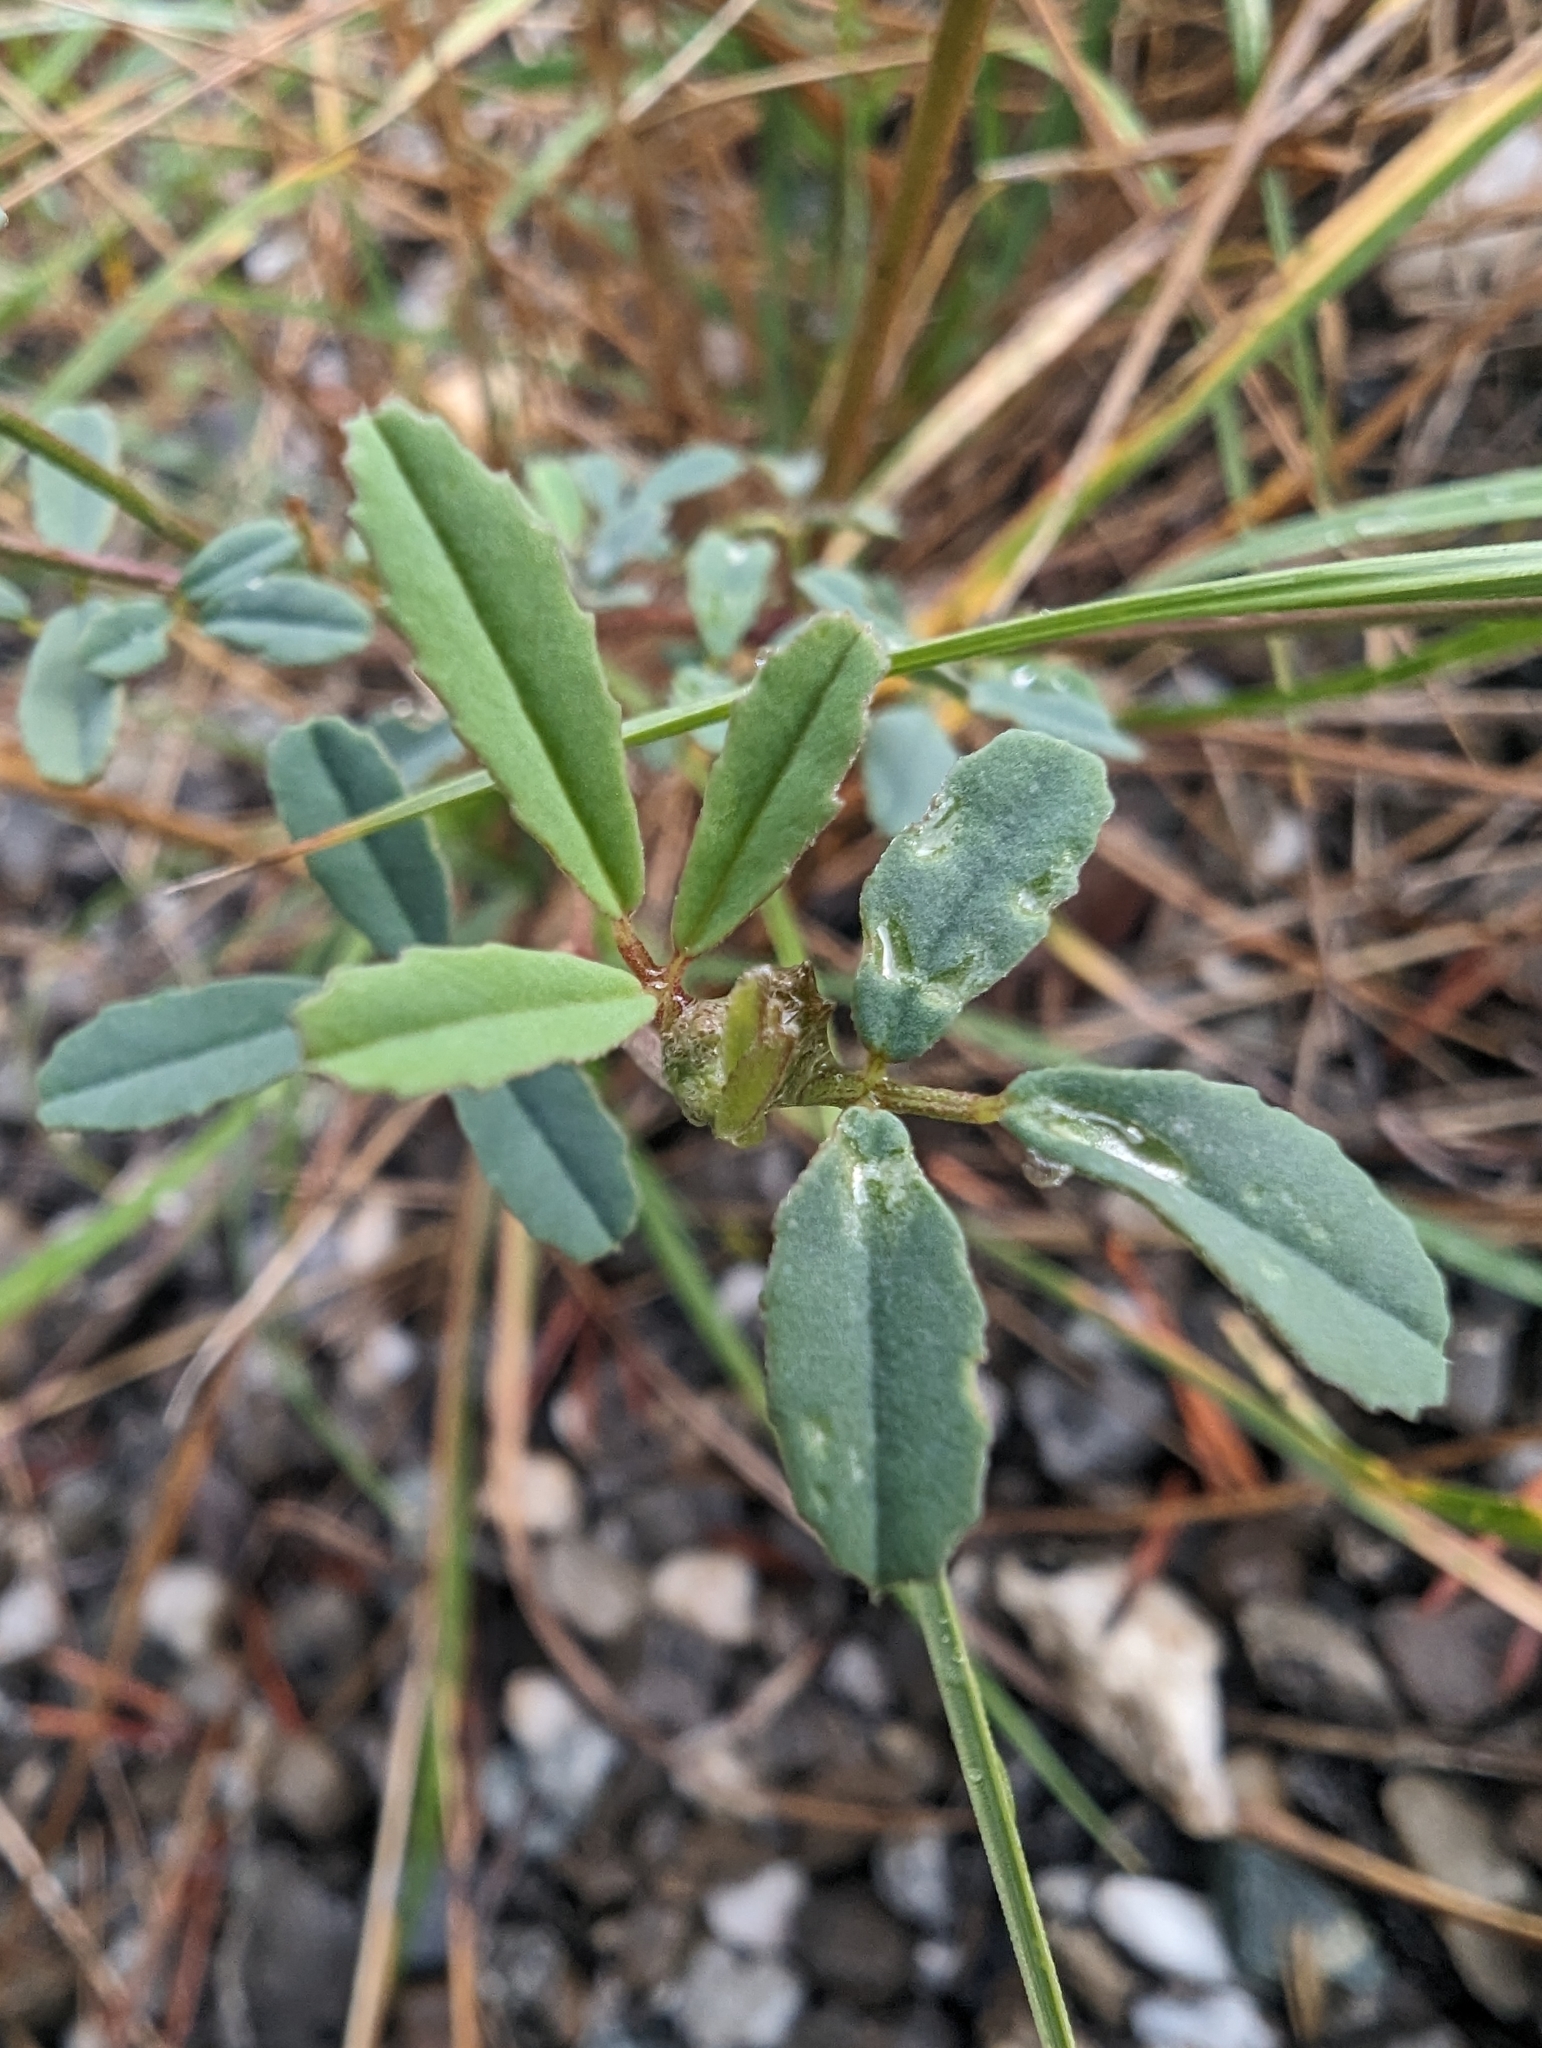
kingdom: Plantae
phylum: Tracheophyta
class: Magnoliopsida
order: Fabales
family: Fabaceae
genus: Melilotus
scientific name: Melilotus albus
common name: White melilot
